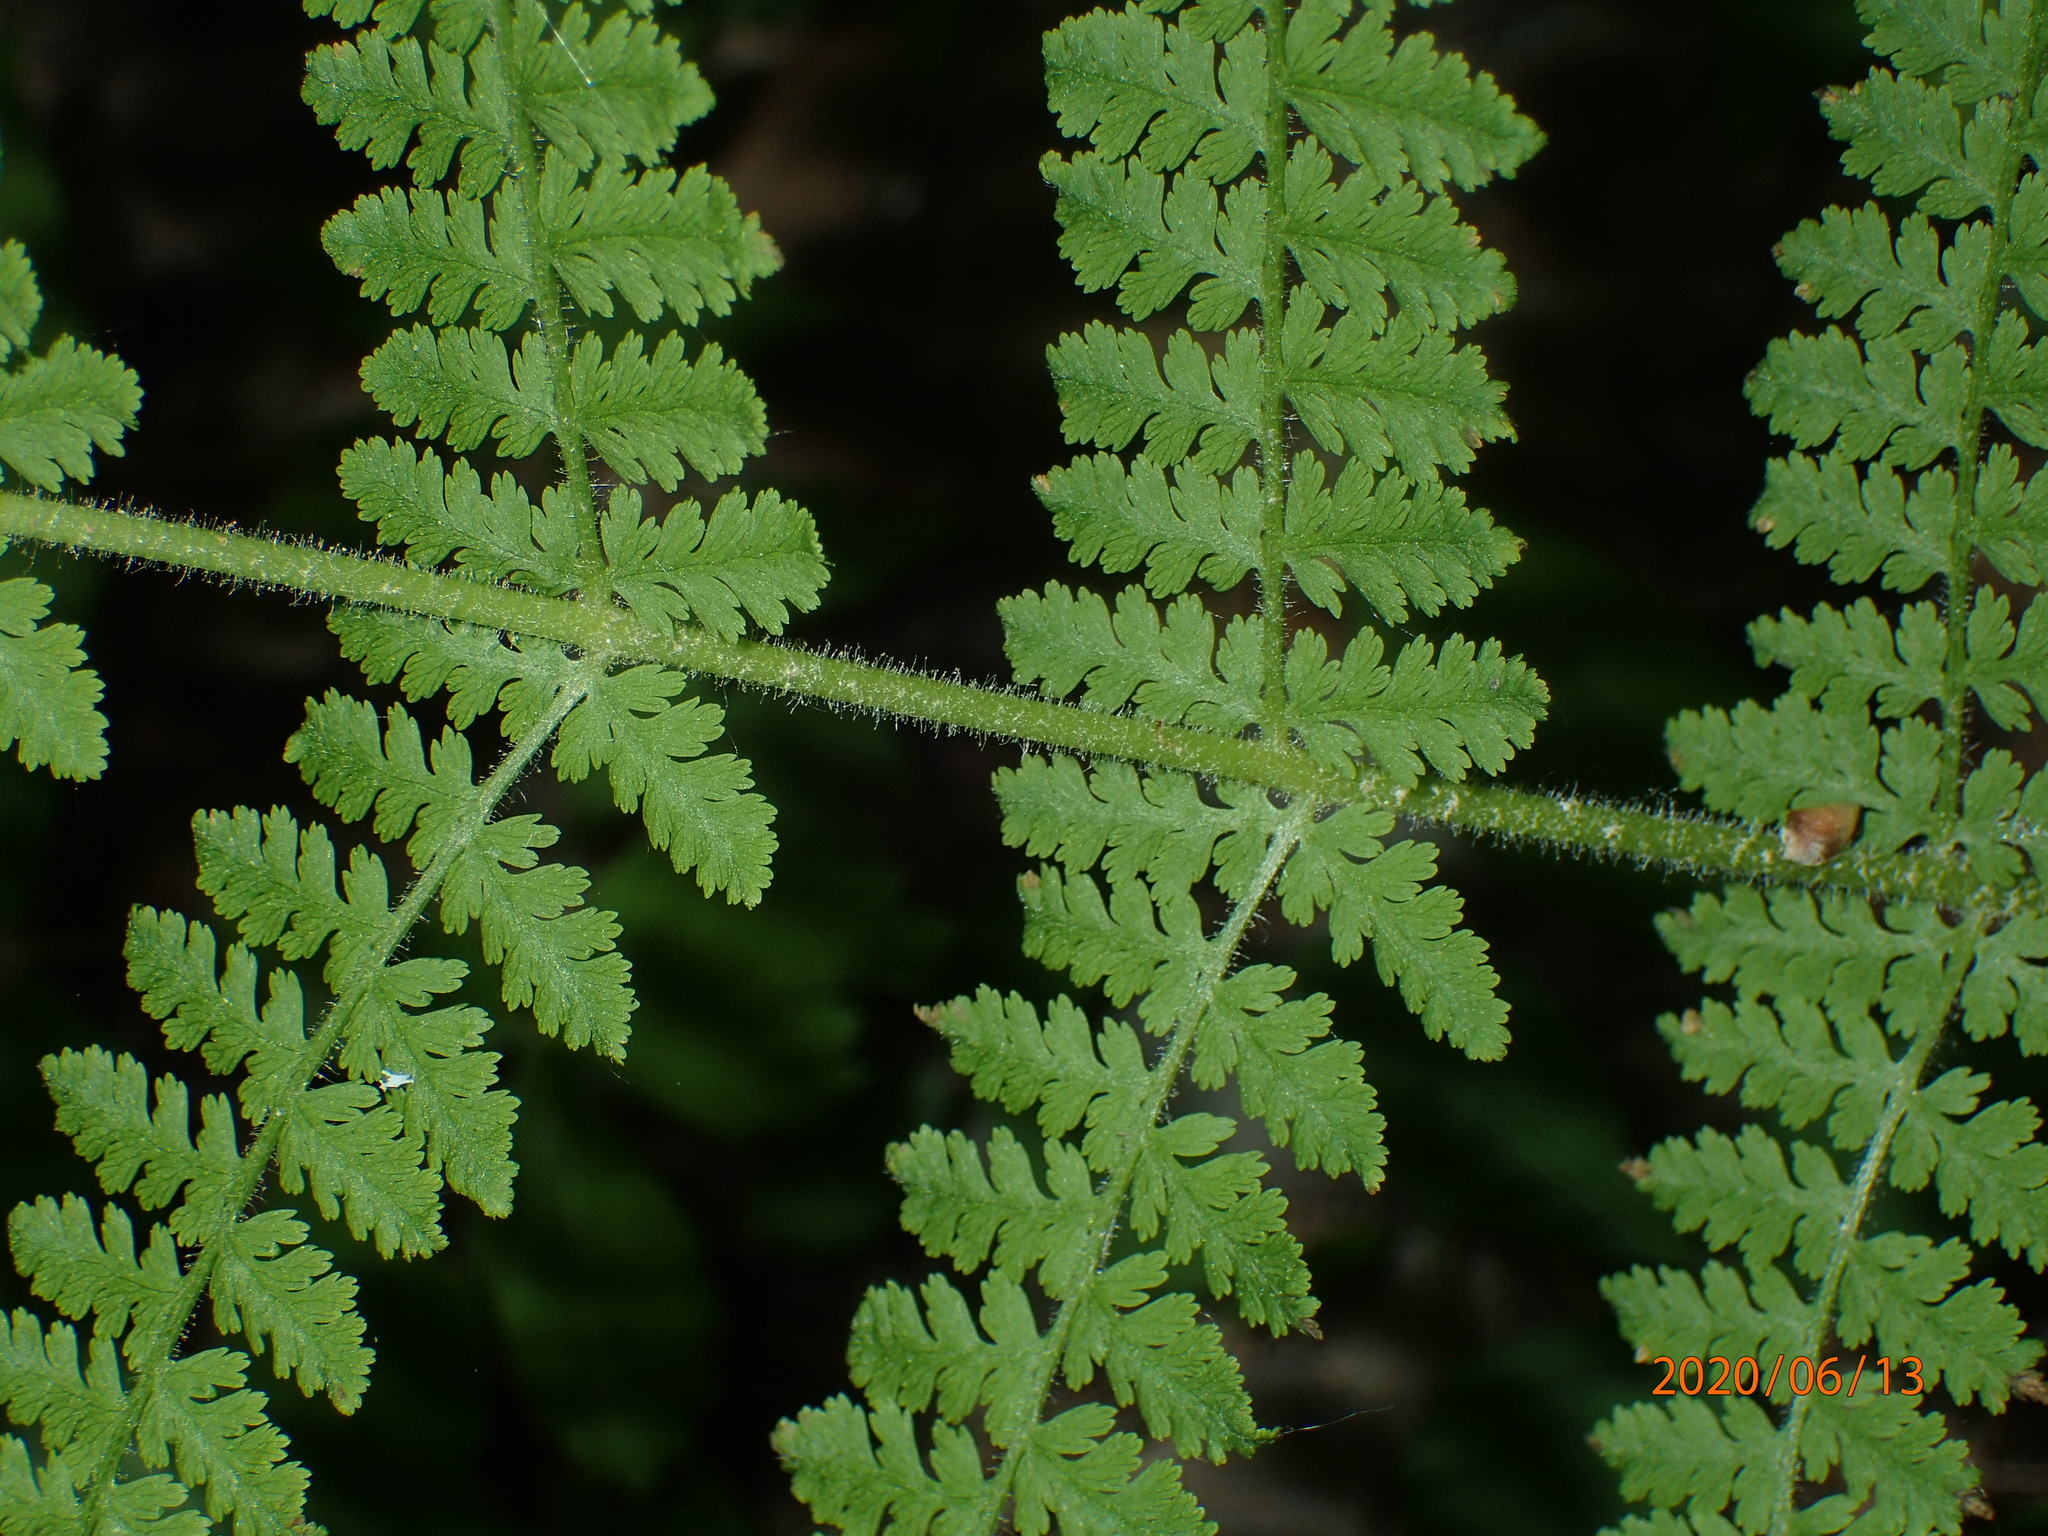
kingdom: Plantae
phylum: Tracheophyta
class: Polypodiopsida
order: Polypodiales
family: Dennstaedtiaceae
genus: Sitobolium
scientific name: Sitobolium punctilobum
